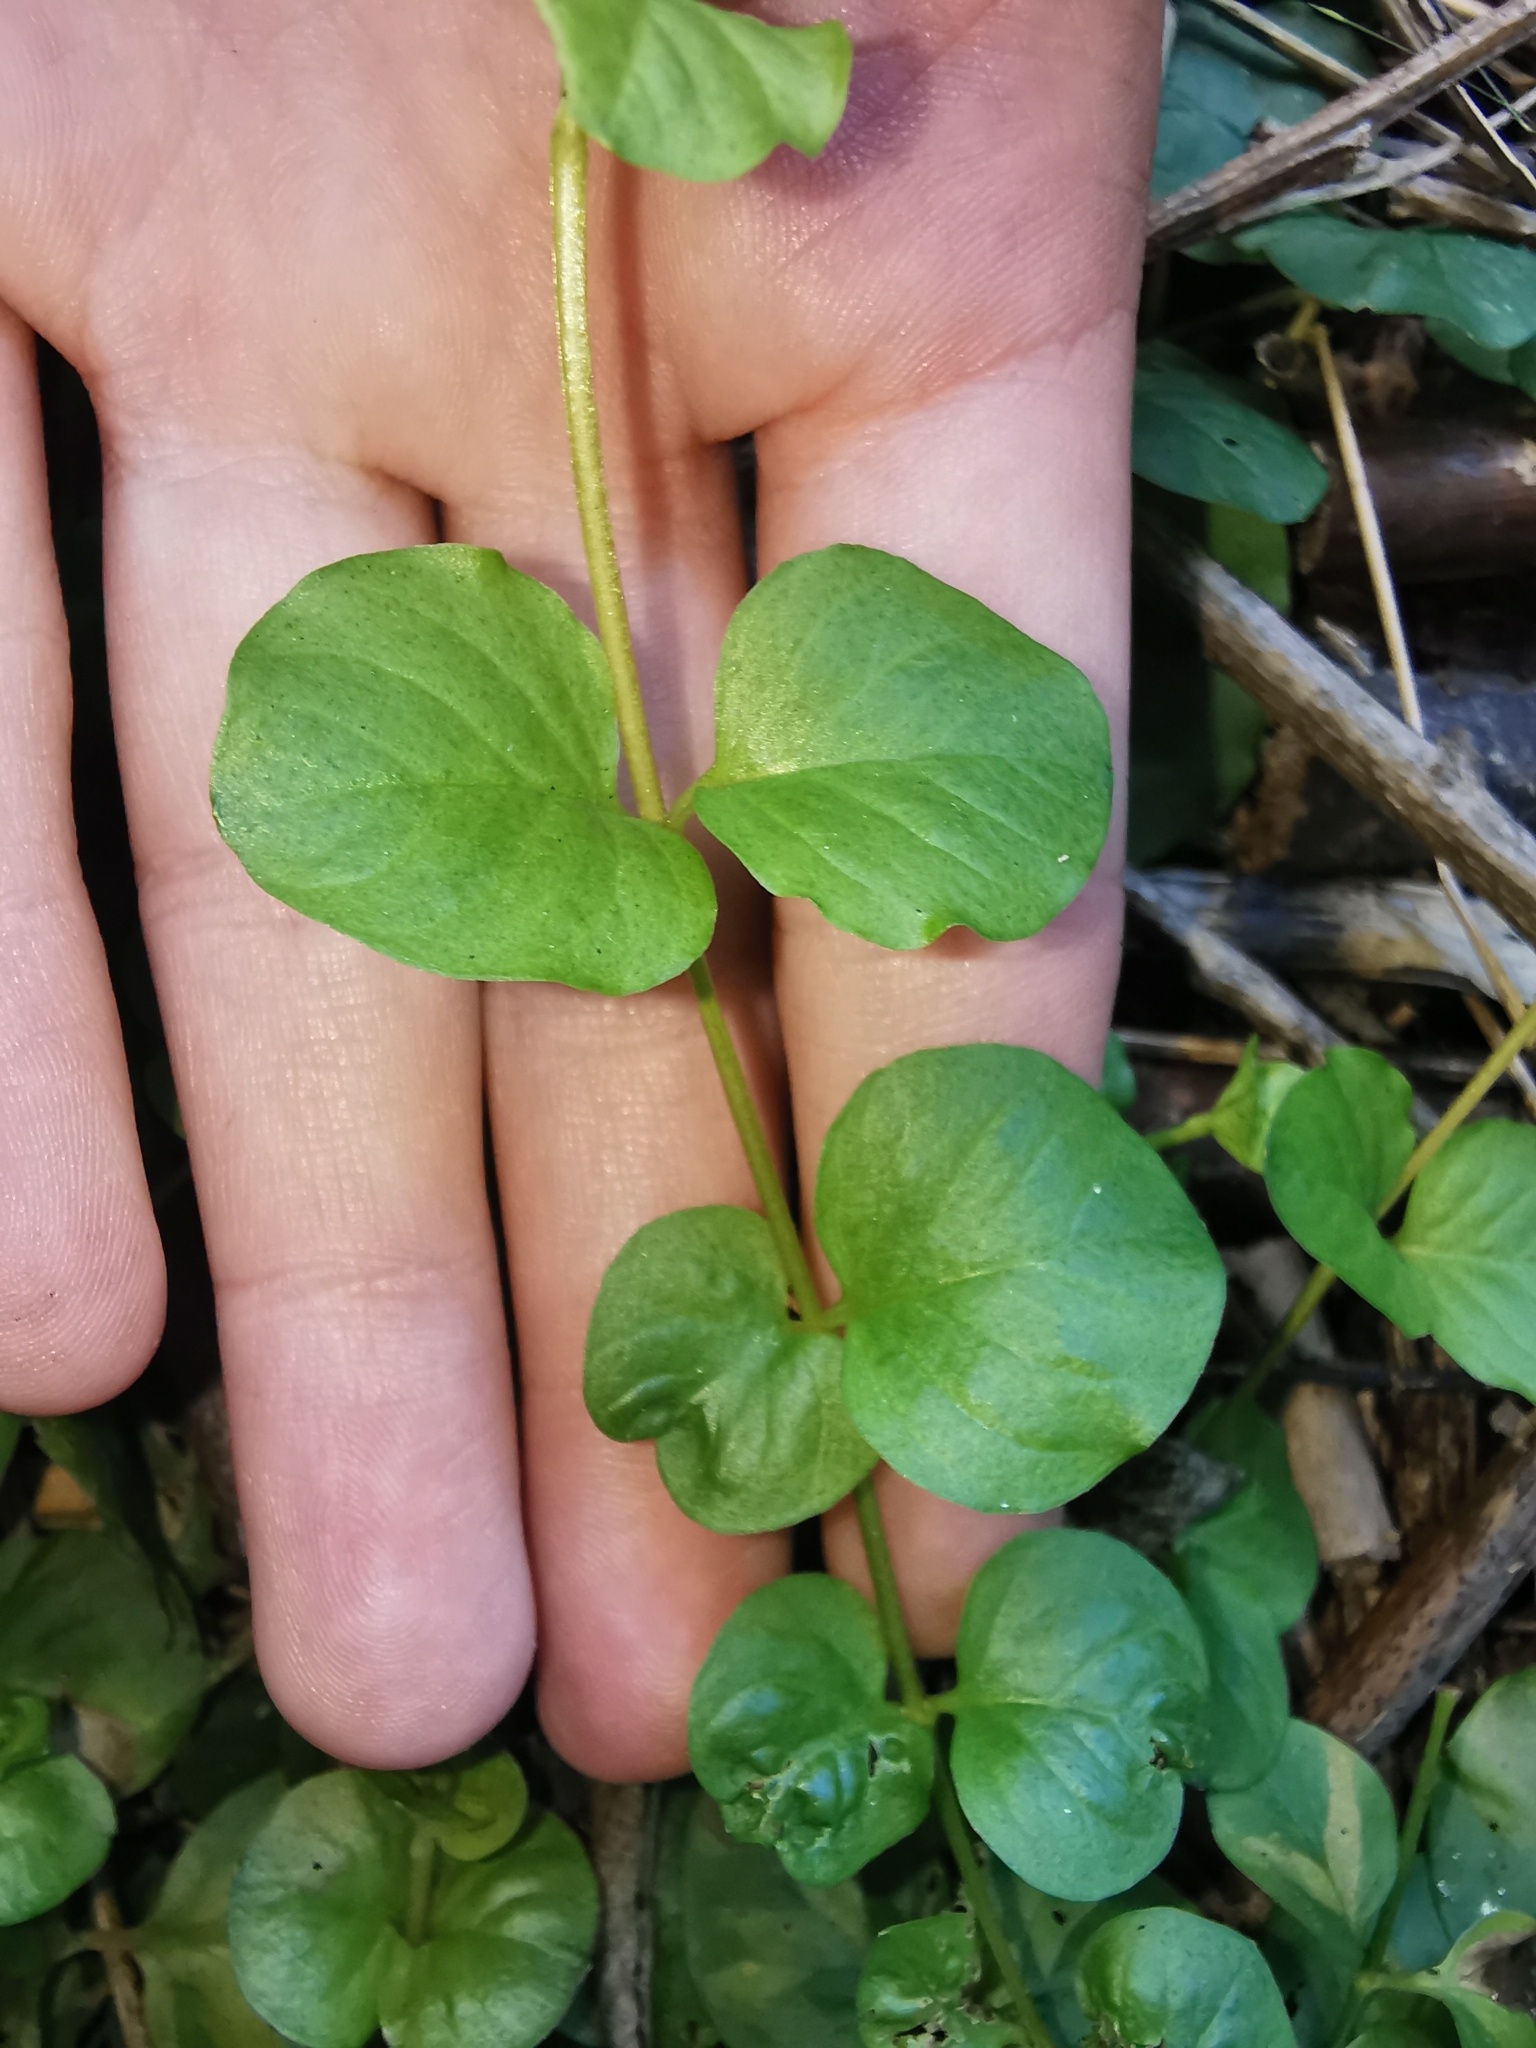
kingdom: Plantae
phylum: Tracheophyta
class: Magnoliopsida
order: Ericales
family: Primulaceae
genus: Lysimachia
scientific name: Lysimachia nummularia
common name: Moneywort
